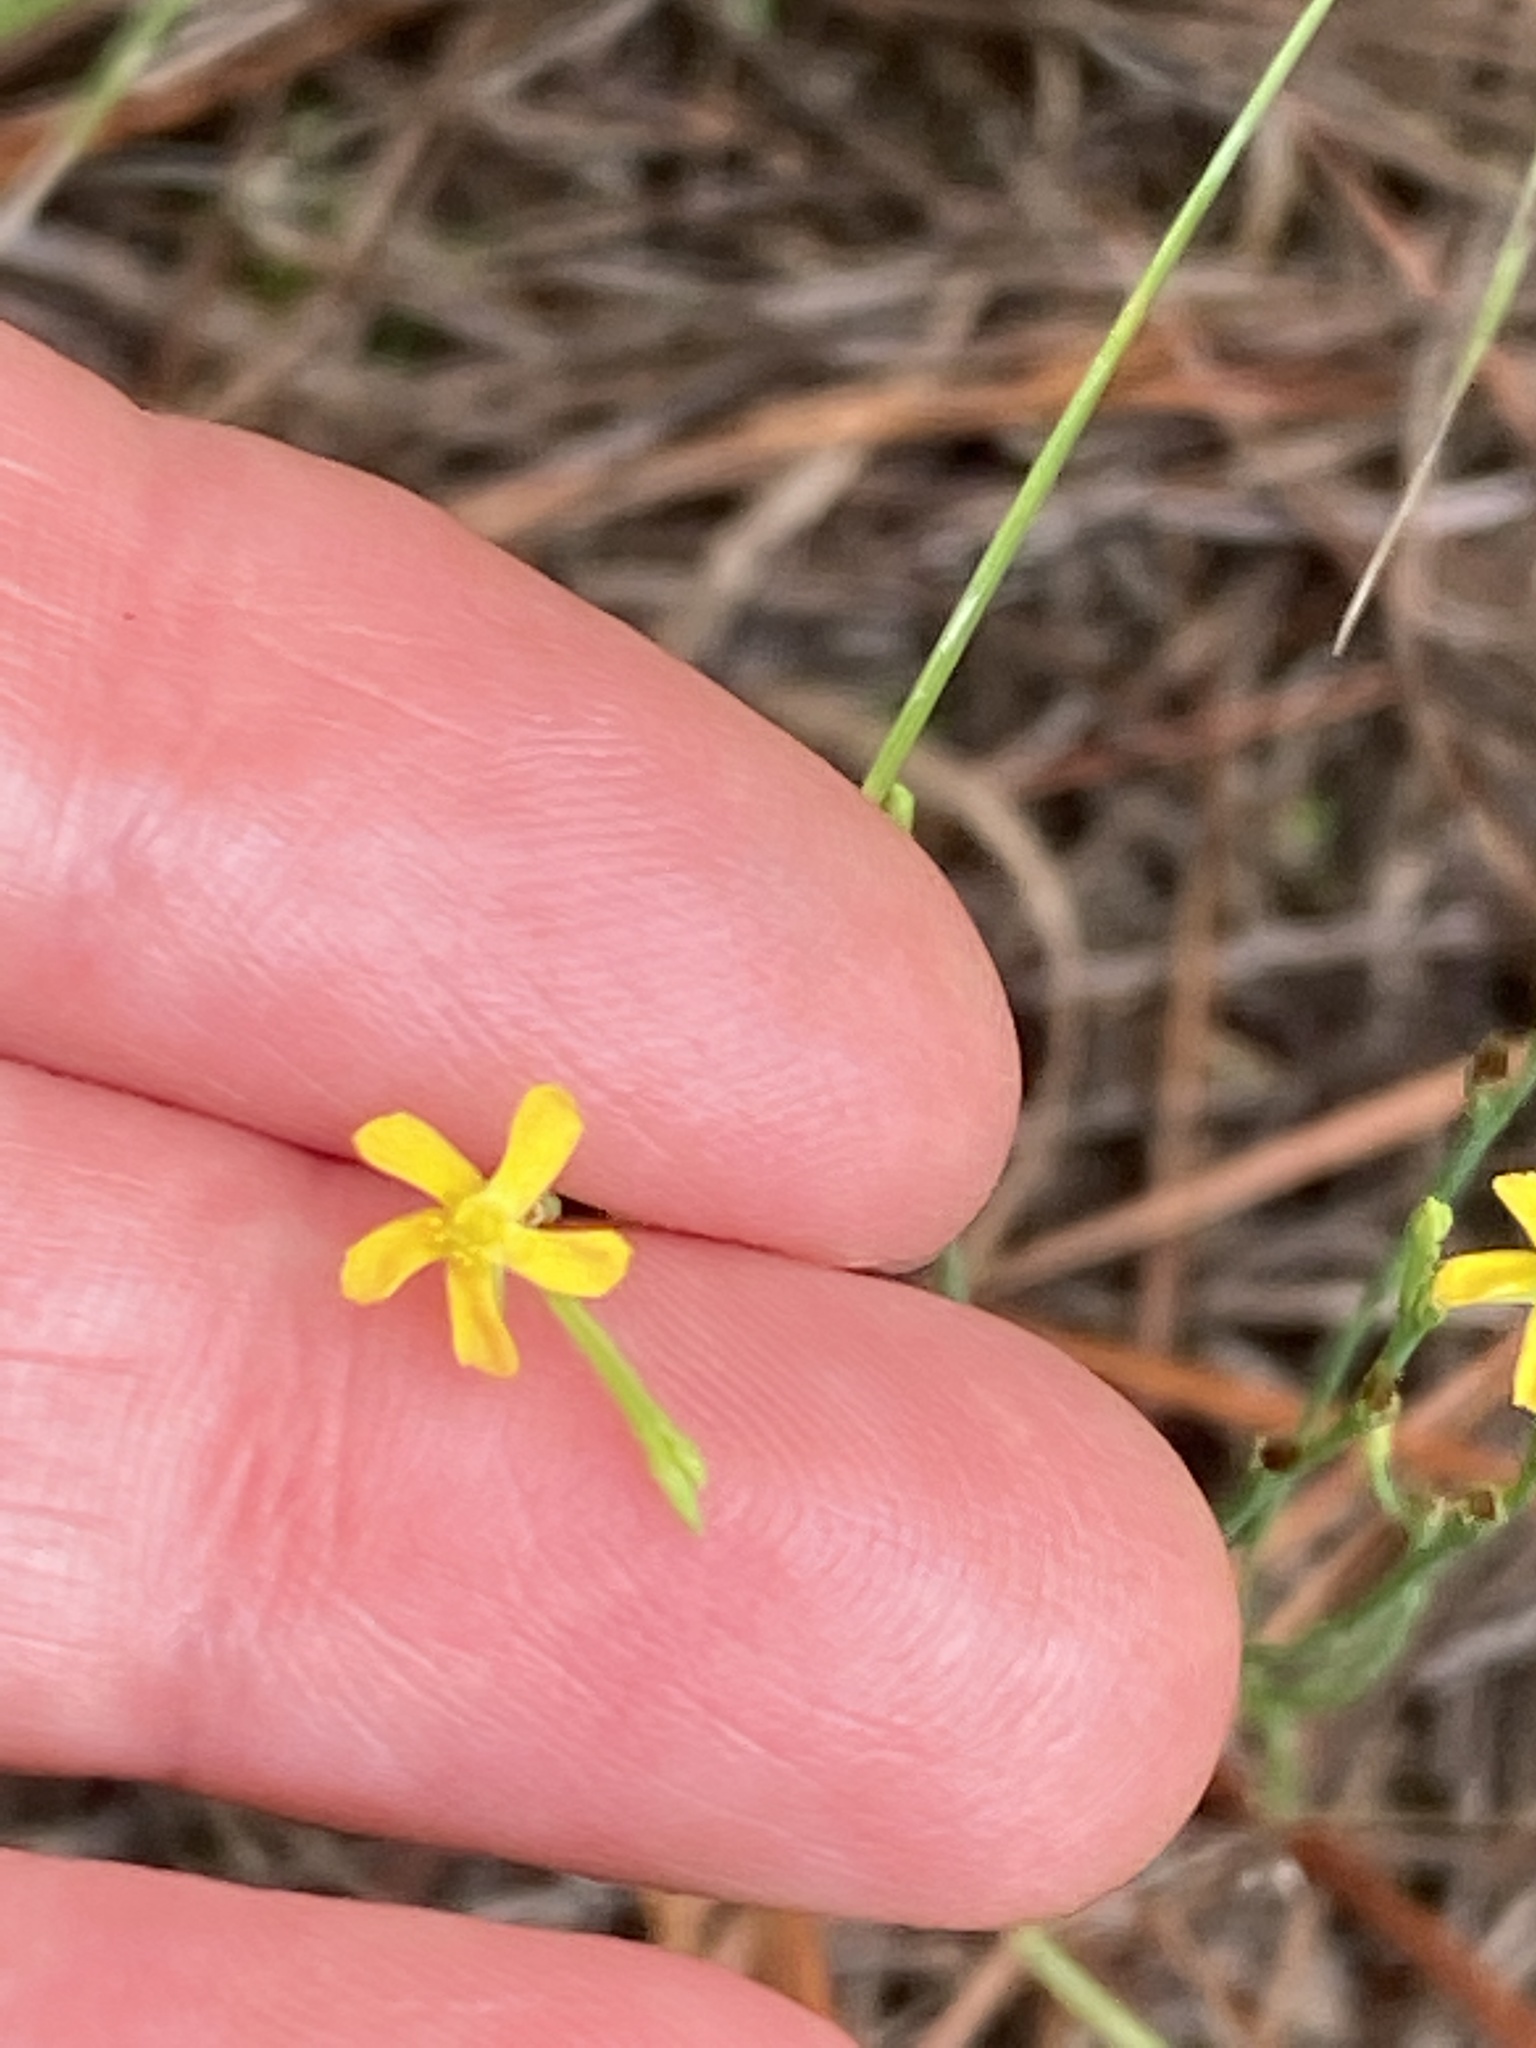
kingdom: Plantae
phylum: Tracheophyta
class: Magnoliopsida
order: Malpighiales
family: Hypericaceae
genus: Hypericum
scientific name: Hypericum gentianoides
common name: Gentian-leaved st. john's-wort
